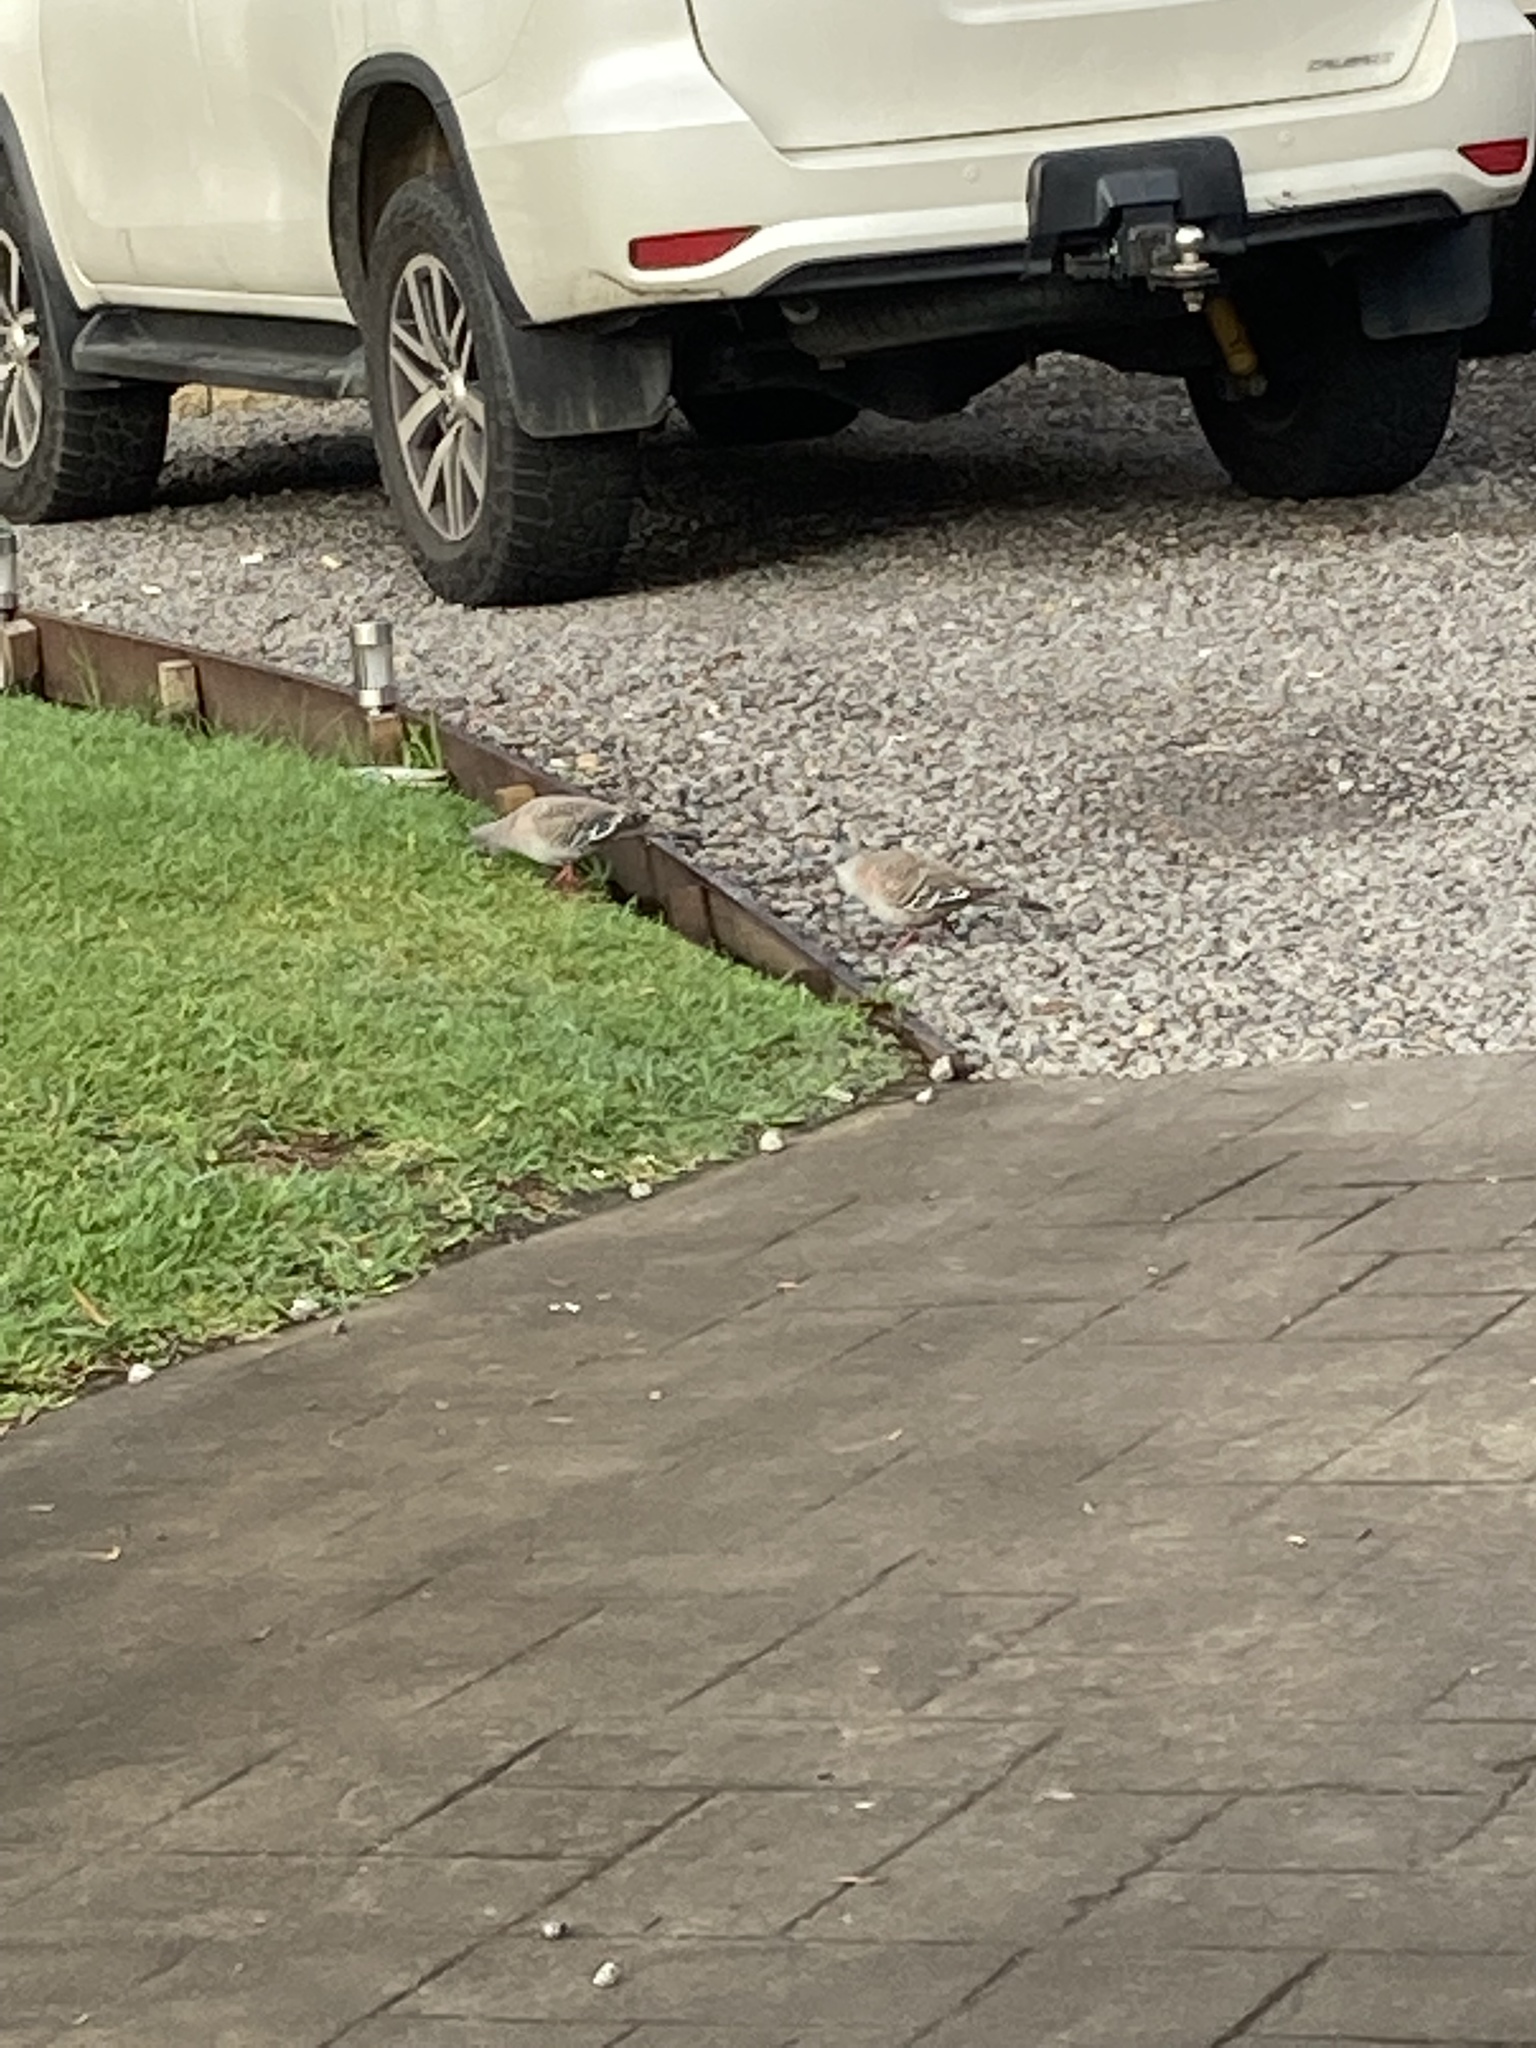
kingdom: Animalia
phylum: Chordata
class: Aves
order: Columbiformes
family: Columbidae
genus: Ocyphaps
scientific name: Ocyphaps lophotes
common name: Crested pigeon
